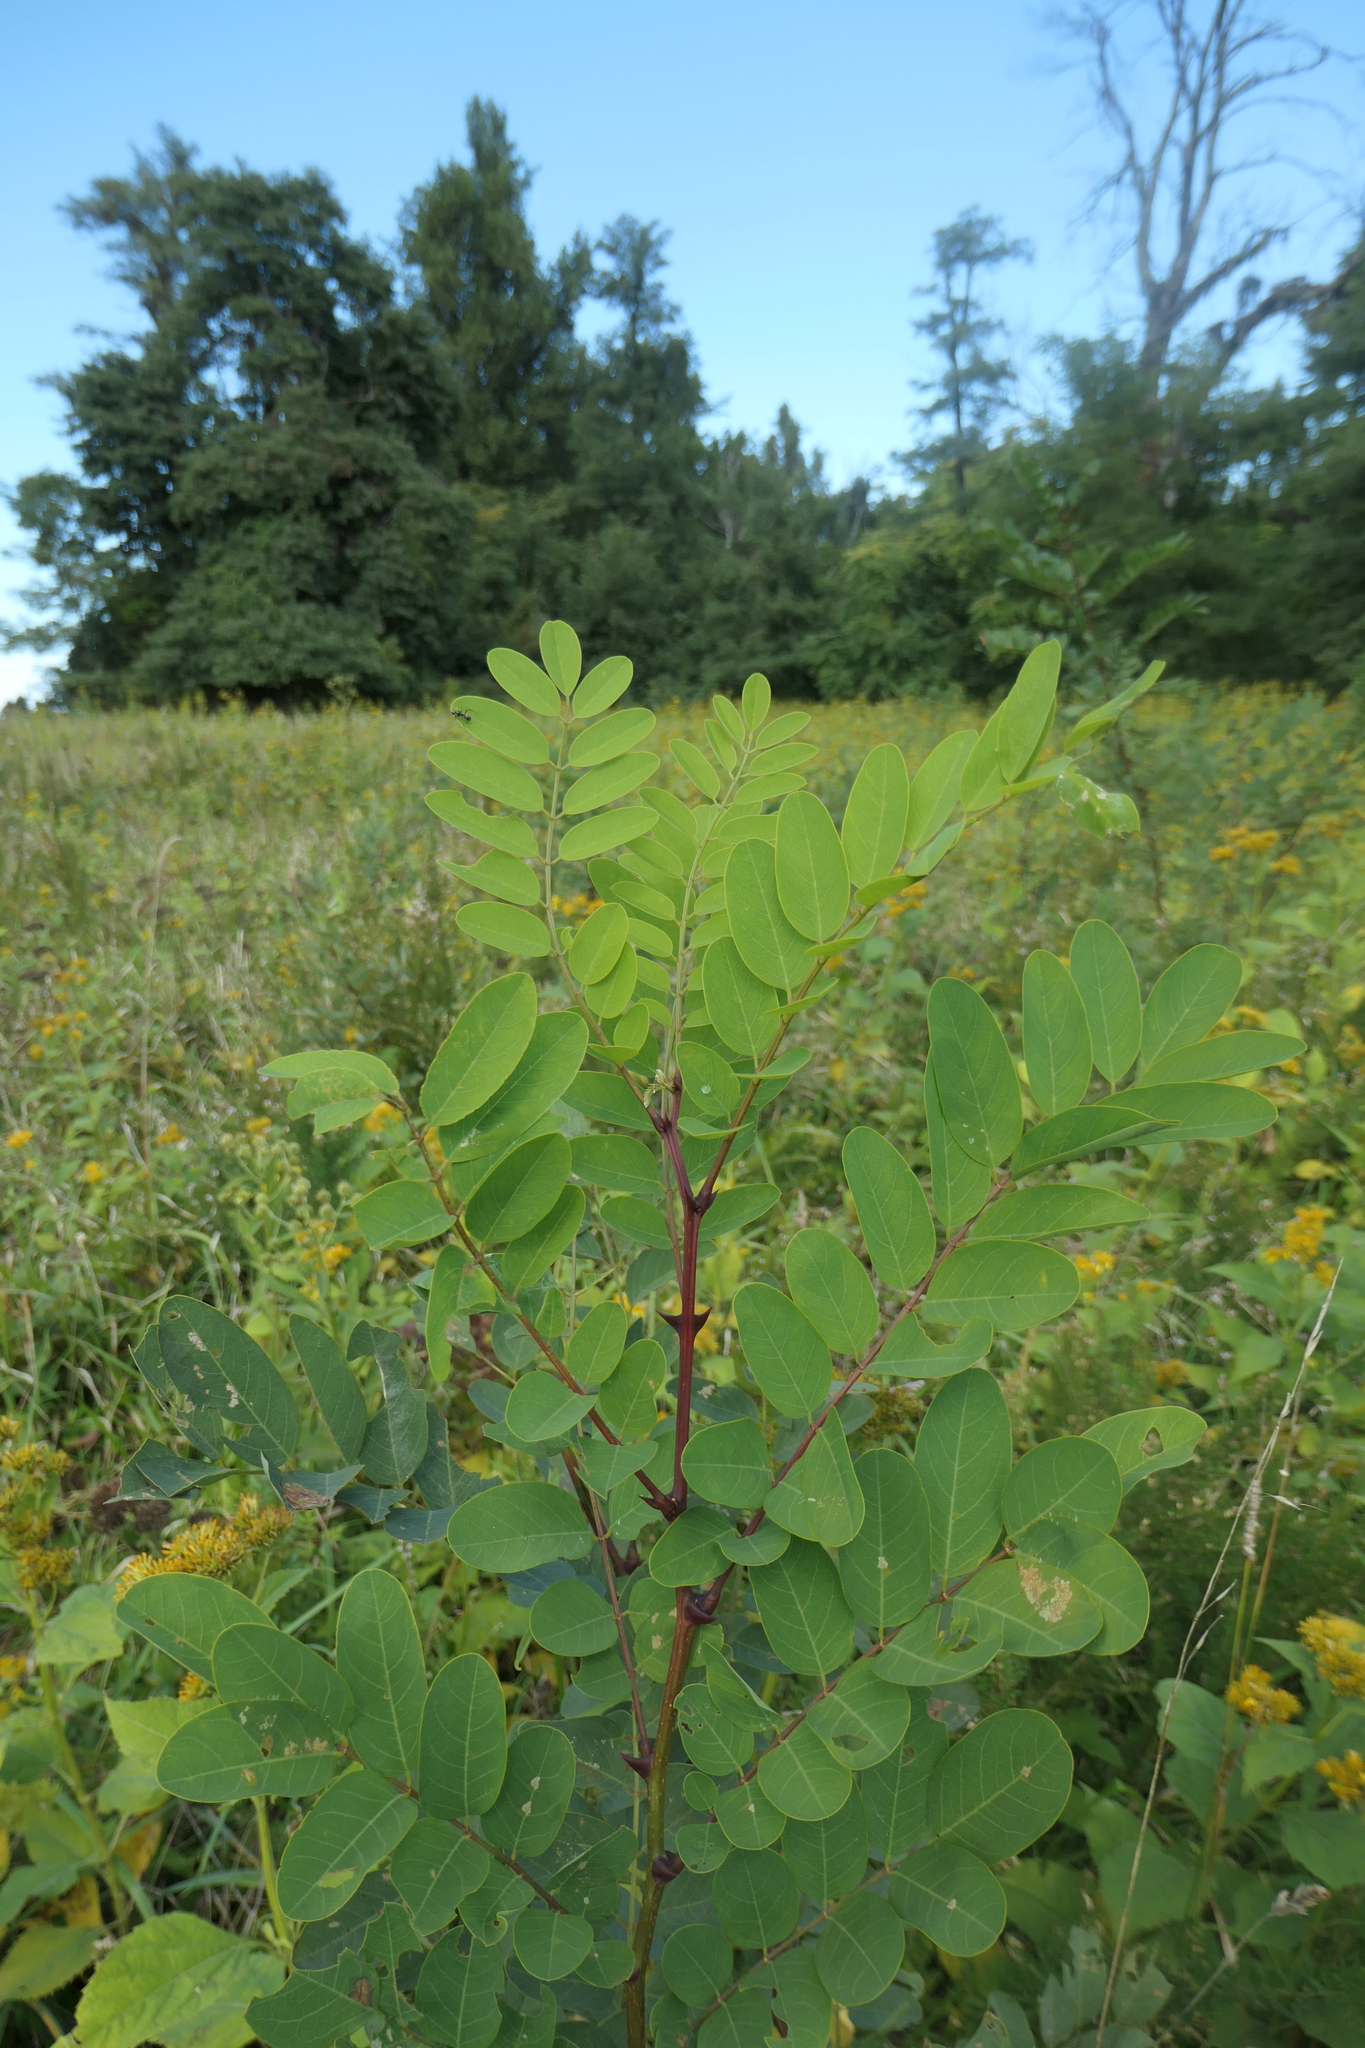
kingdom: Plantae
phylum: Tracheophyta
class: Magnoliopsida
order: Fabales
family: Fabaceae
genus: Robinia
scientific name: Robinia pseudoacacia
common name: Black locust
